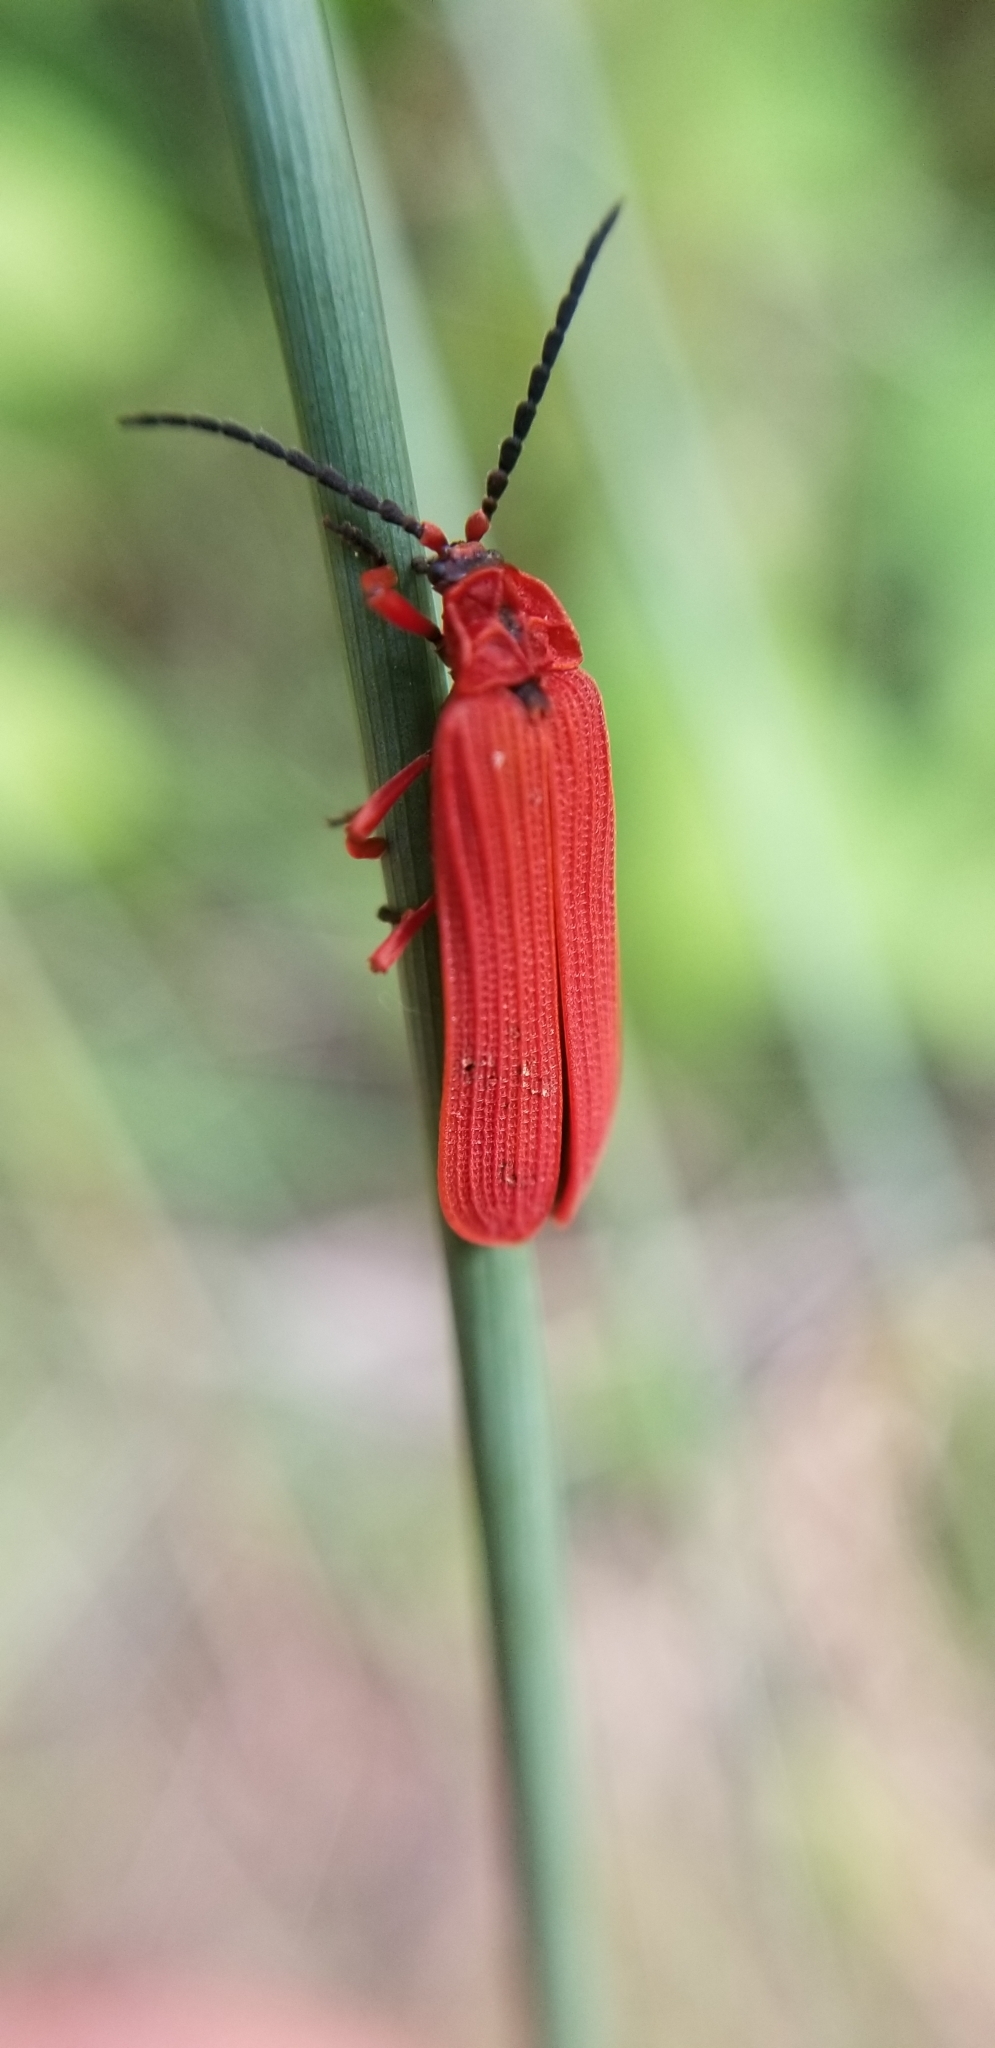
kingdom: Animalia
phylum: Arthropoda
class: Insecta
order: Coleoptera
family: Lycidae
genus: Dictyoptera
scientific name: Dictyoptera simplicipes
